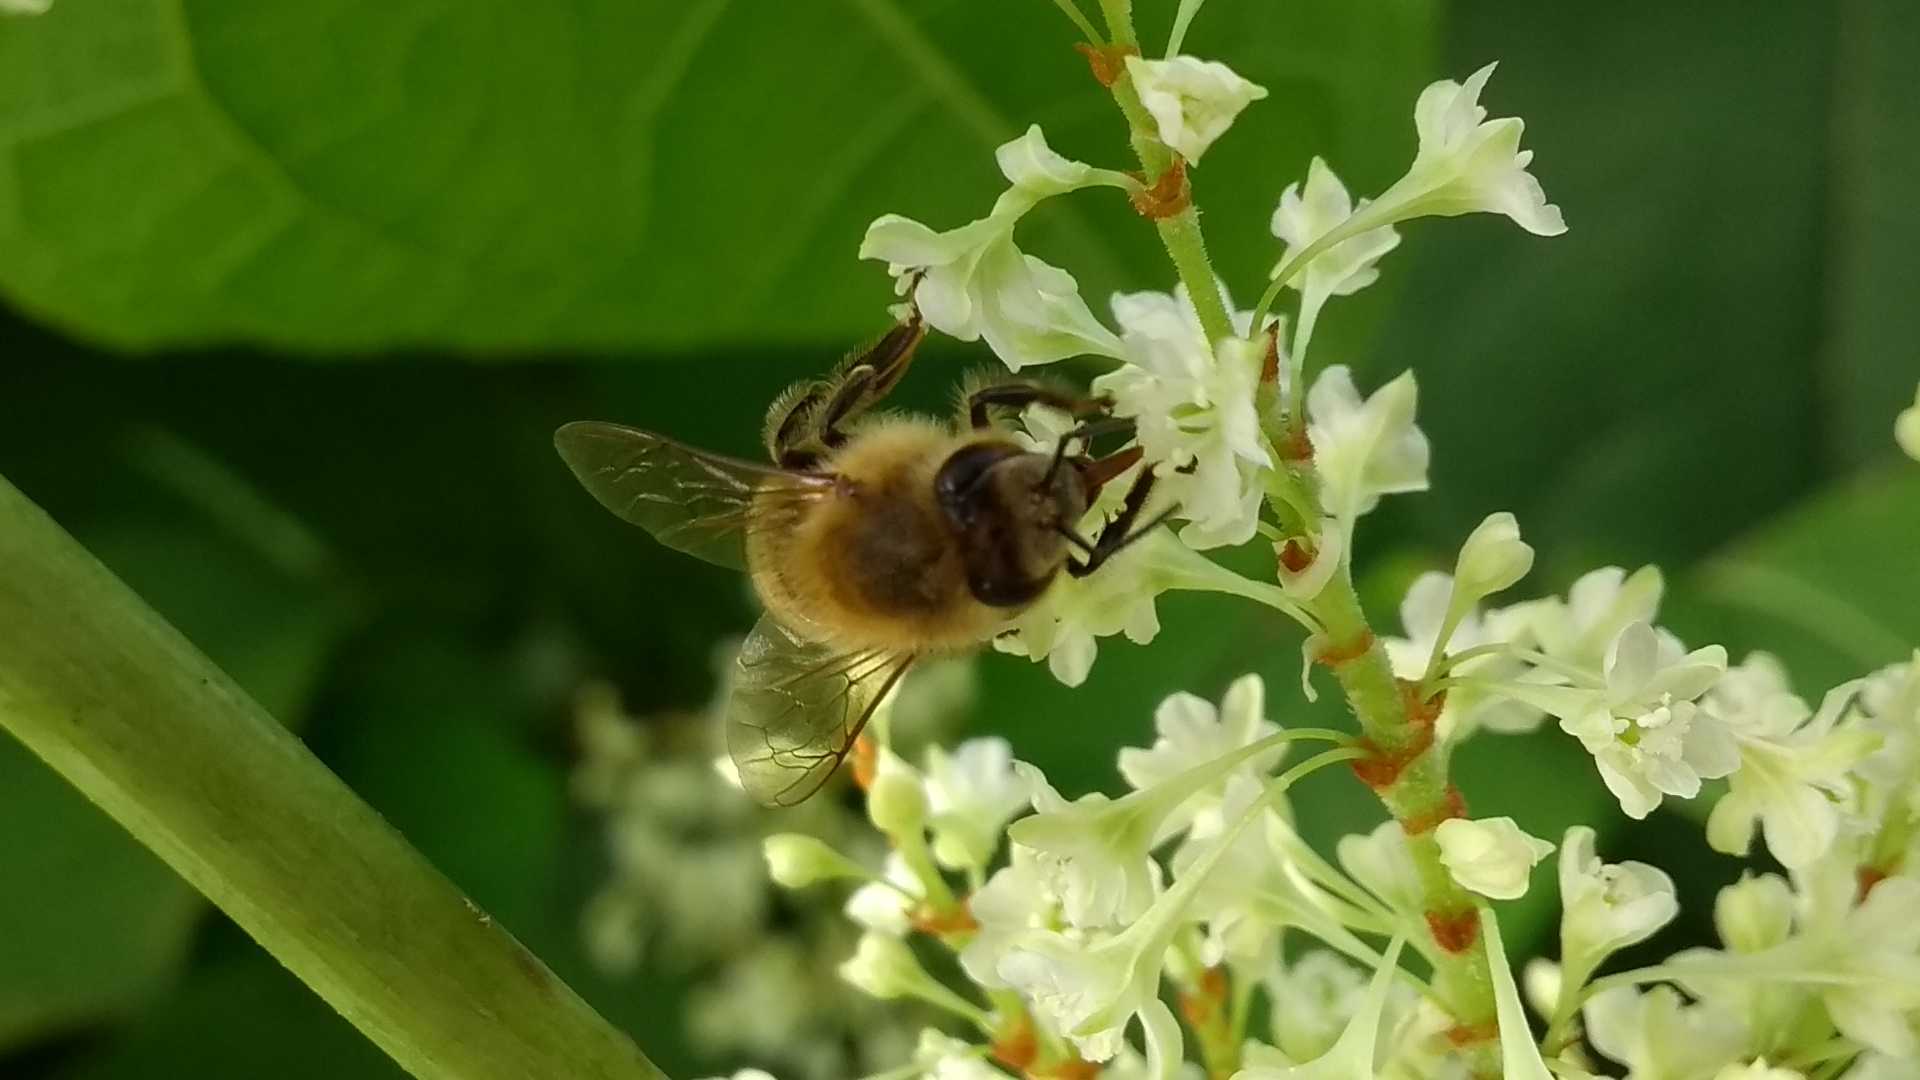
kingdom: Animalia
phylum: Arthropoda
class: Insecta
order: Hymenoptera
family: Apidae
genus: Apis
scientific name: Apis mellifera
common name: Honey bee
